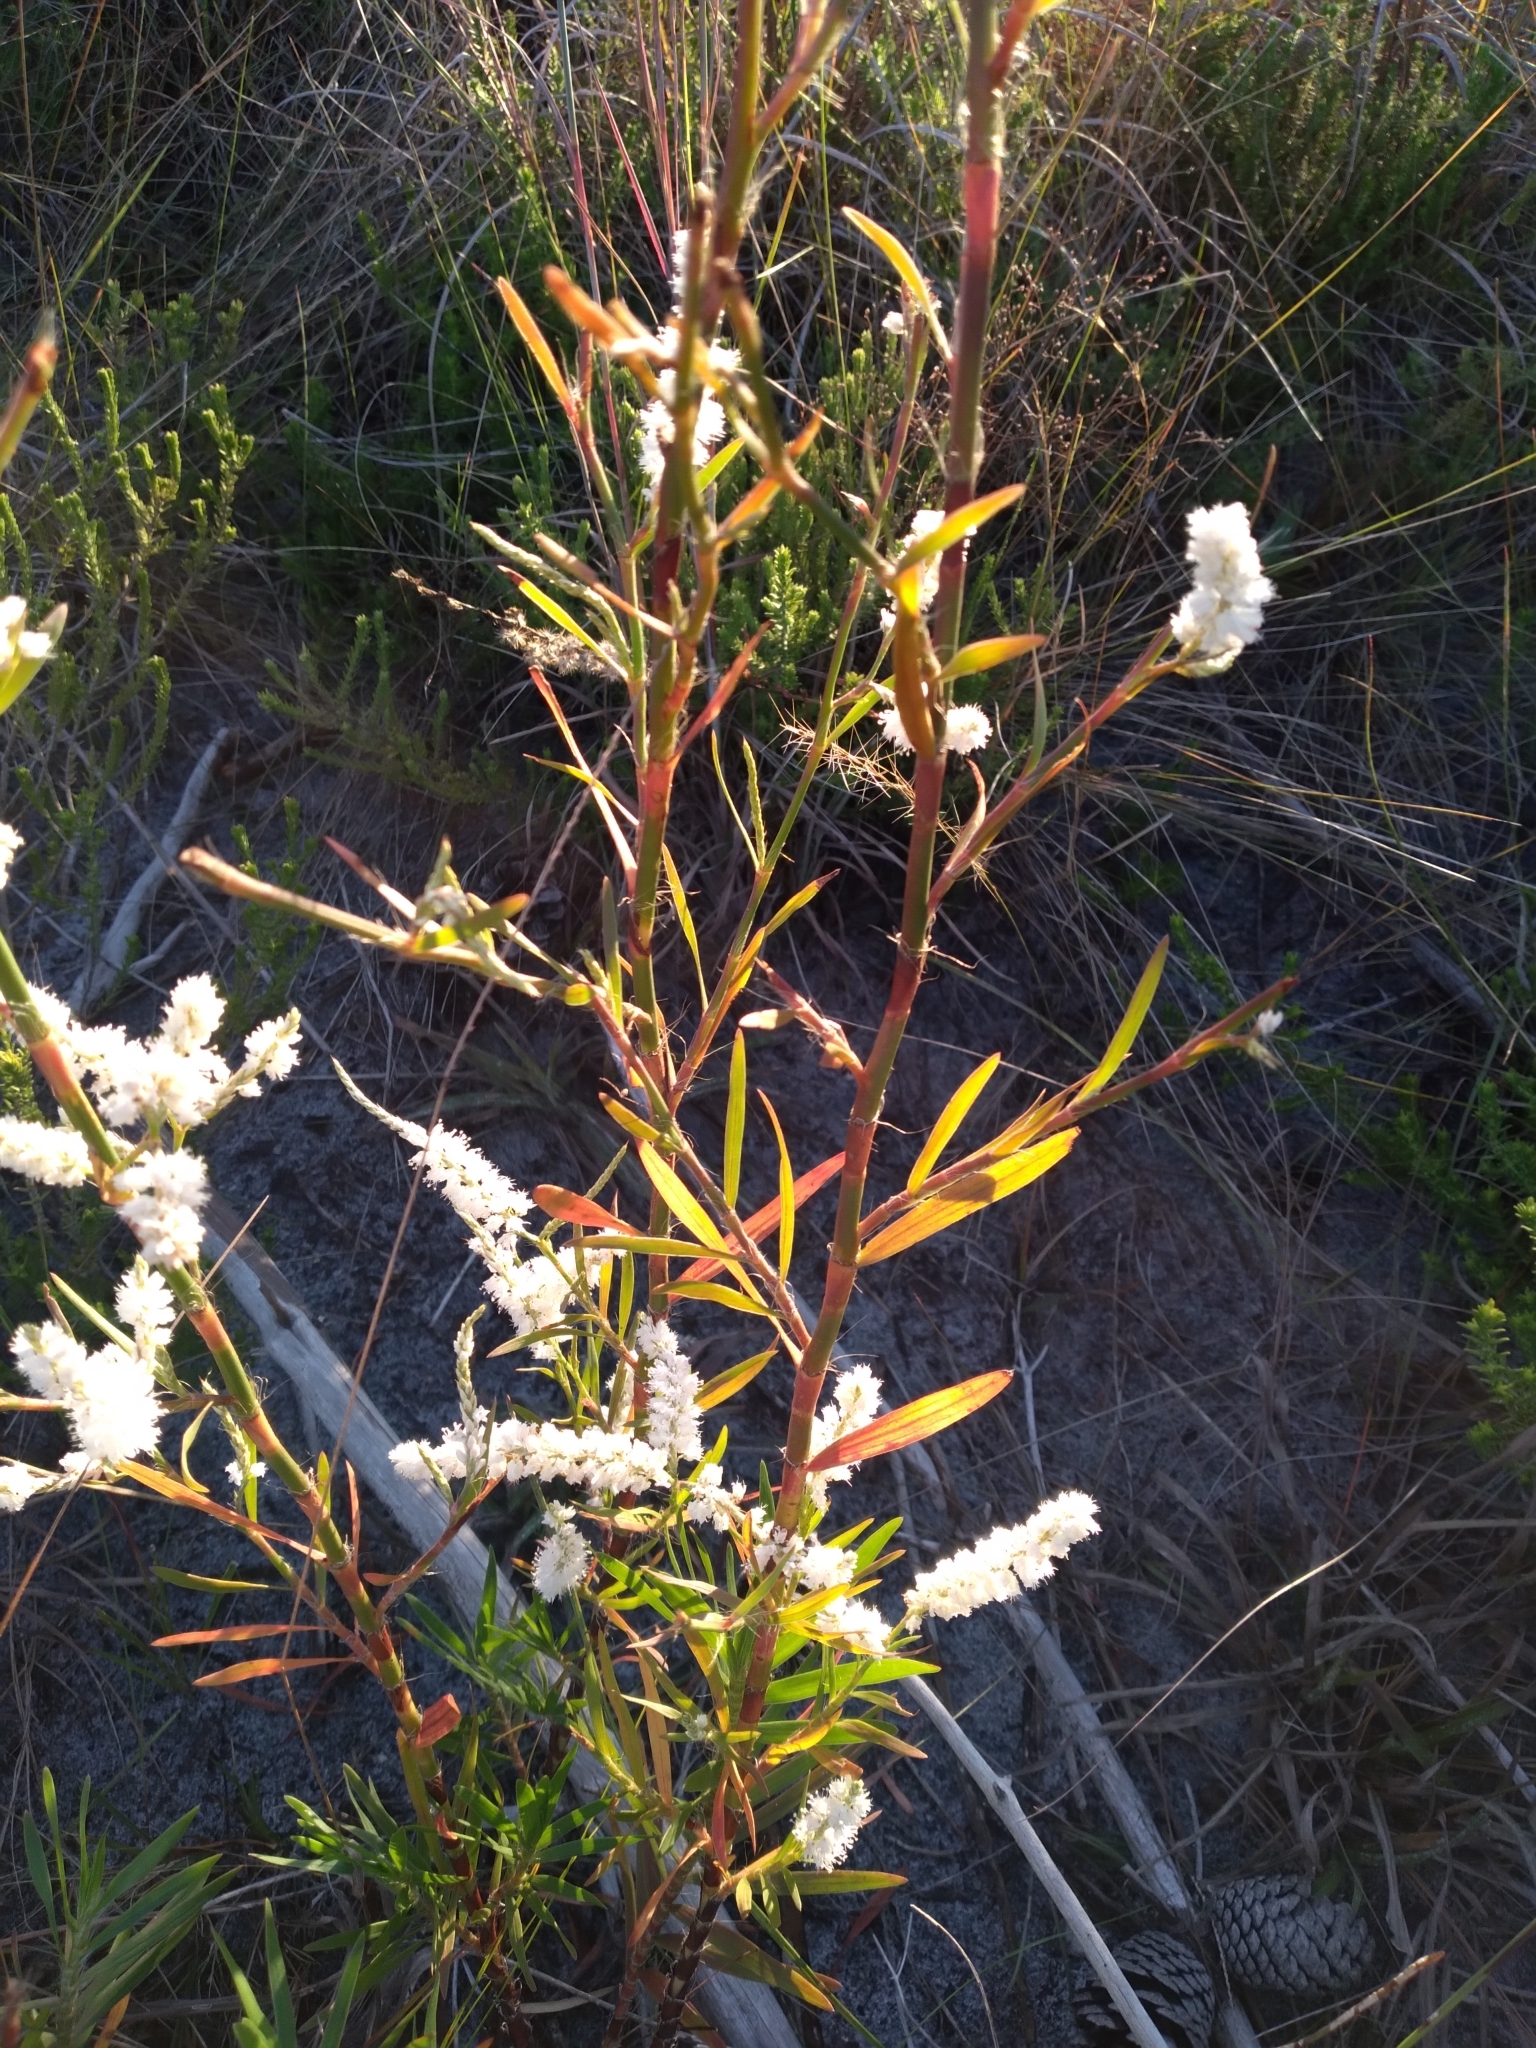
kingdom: Plantae
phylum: Tracheophyta
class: Magnoliopsida
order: Caryophyllales
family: Polygonaceae
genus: Polygonella
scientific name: Polygonella robusta
